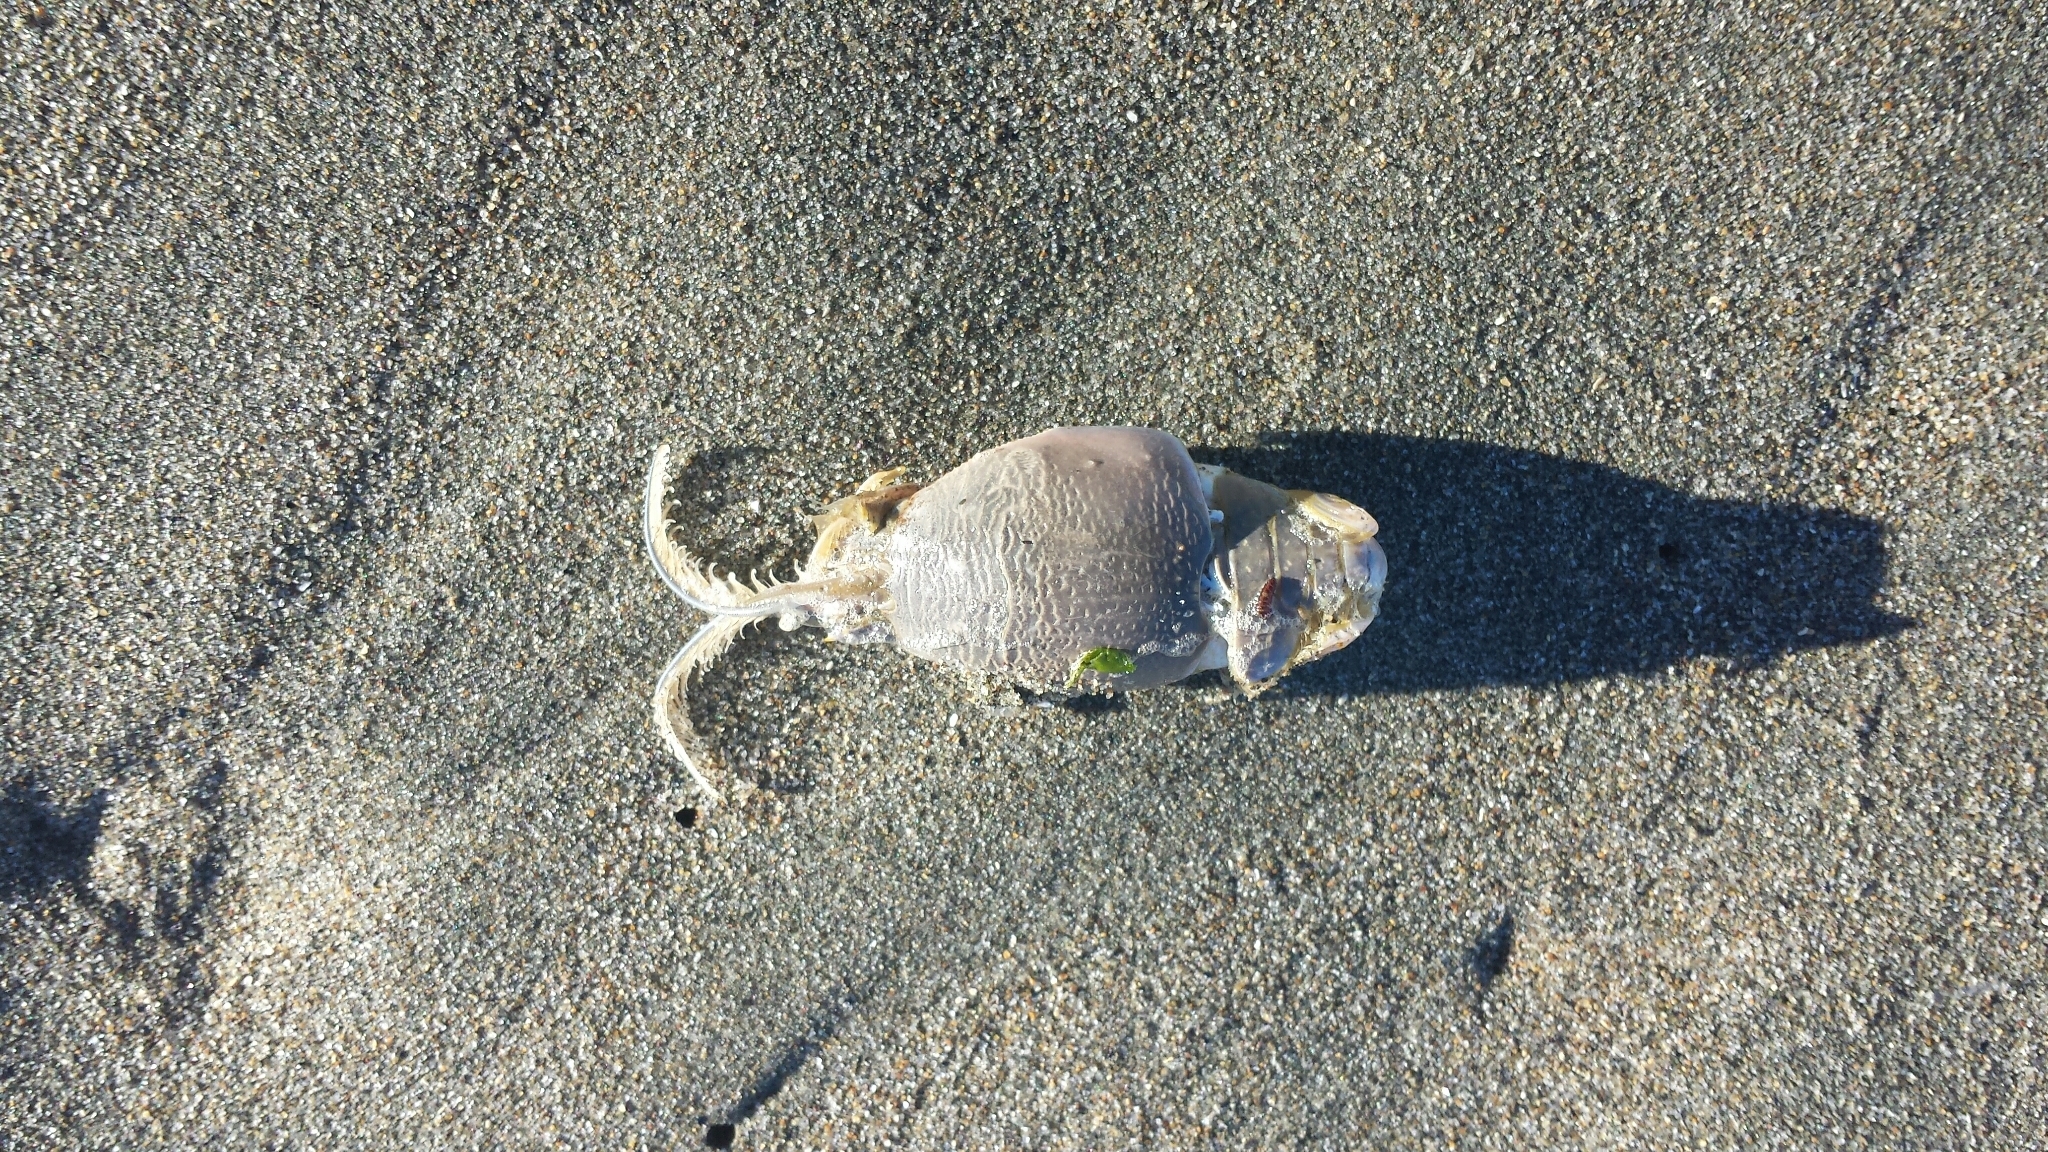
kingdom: Animalia
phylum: Arthropoda
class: Malacostraca
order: Decapoda
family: Hippidae
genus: Emerita
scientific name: Emerita analoga
